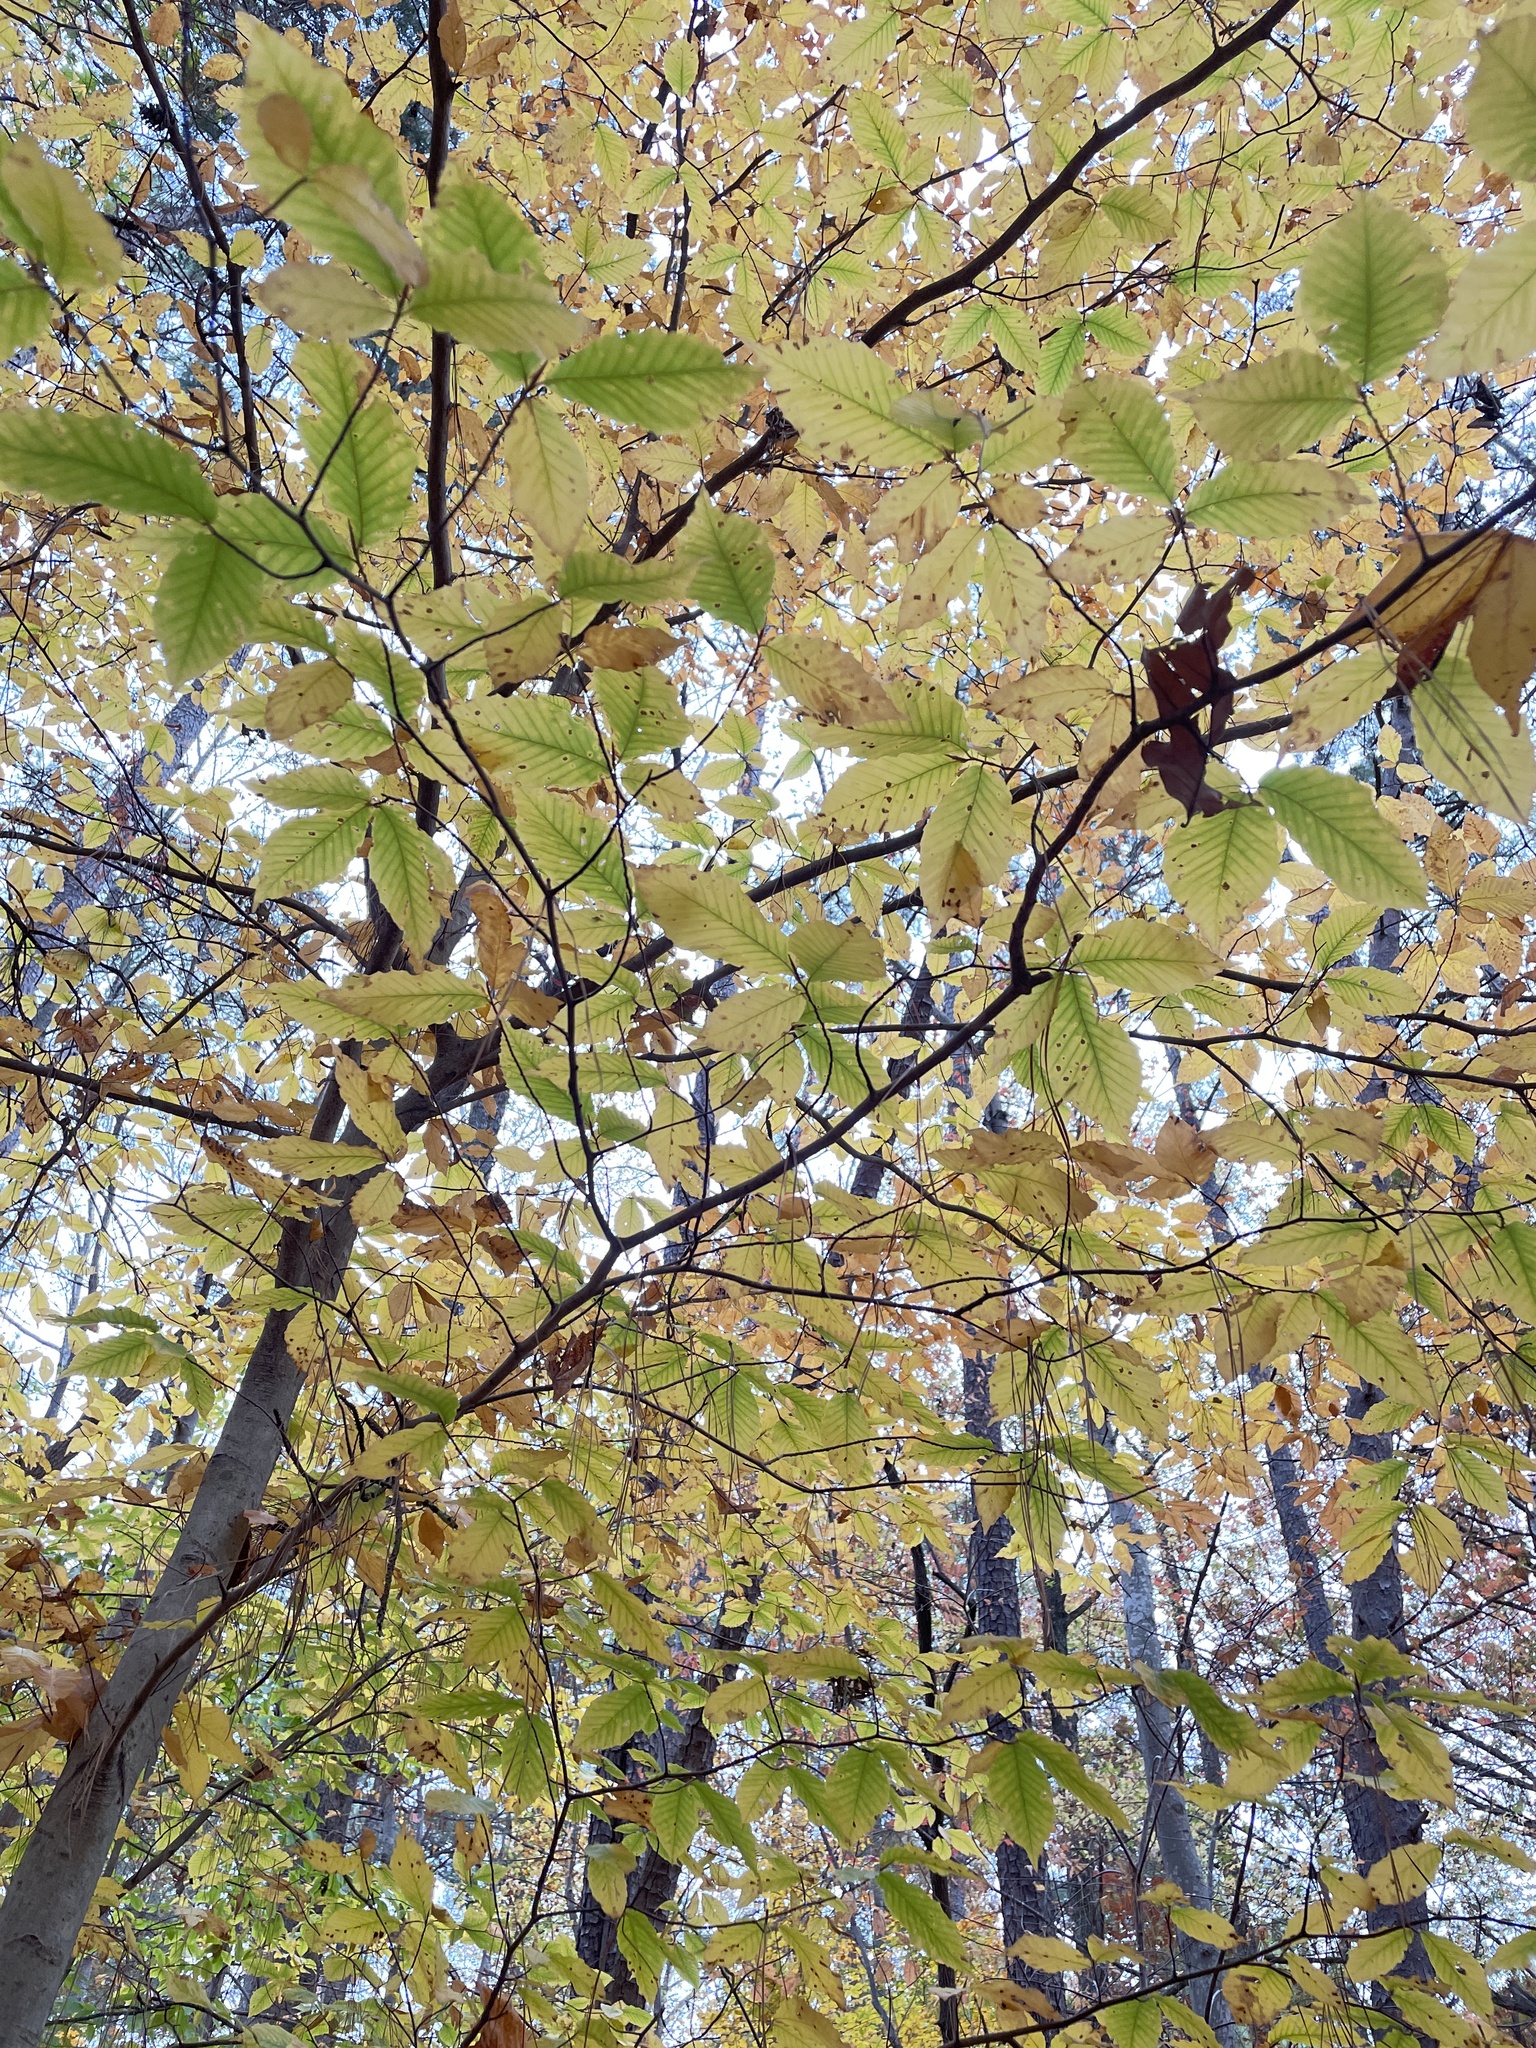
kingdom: Plantae
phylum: Tracheophyta
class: Magnoliopsida
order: Fagales
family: Fagaceae
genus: Fagus
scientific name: Fagus grandifolia
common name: American beech
